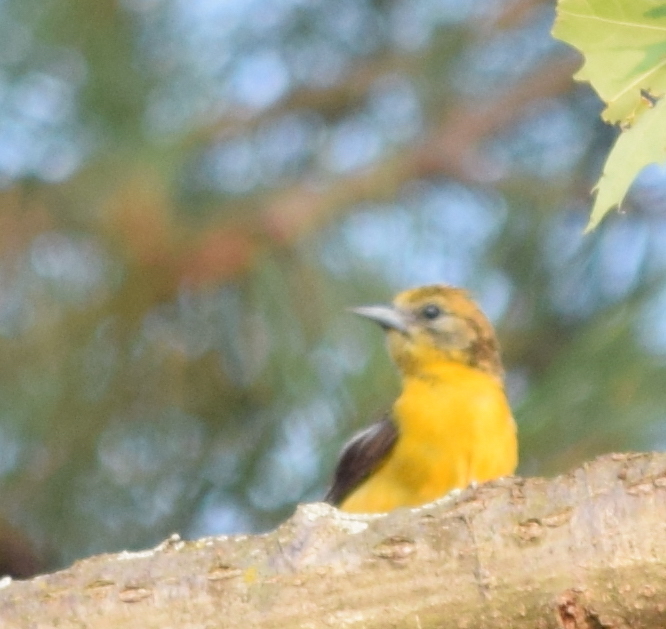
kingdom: Animalia
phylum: Chordata
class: Aves
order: Passeriformes
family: Icteridae
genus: Icterus
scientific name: Icterus galbula
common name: Baltimore oriole
